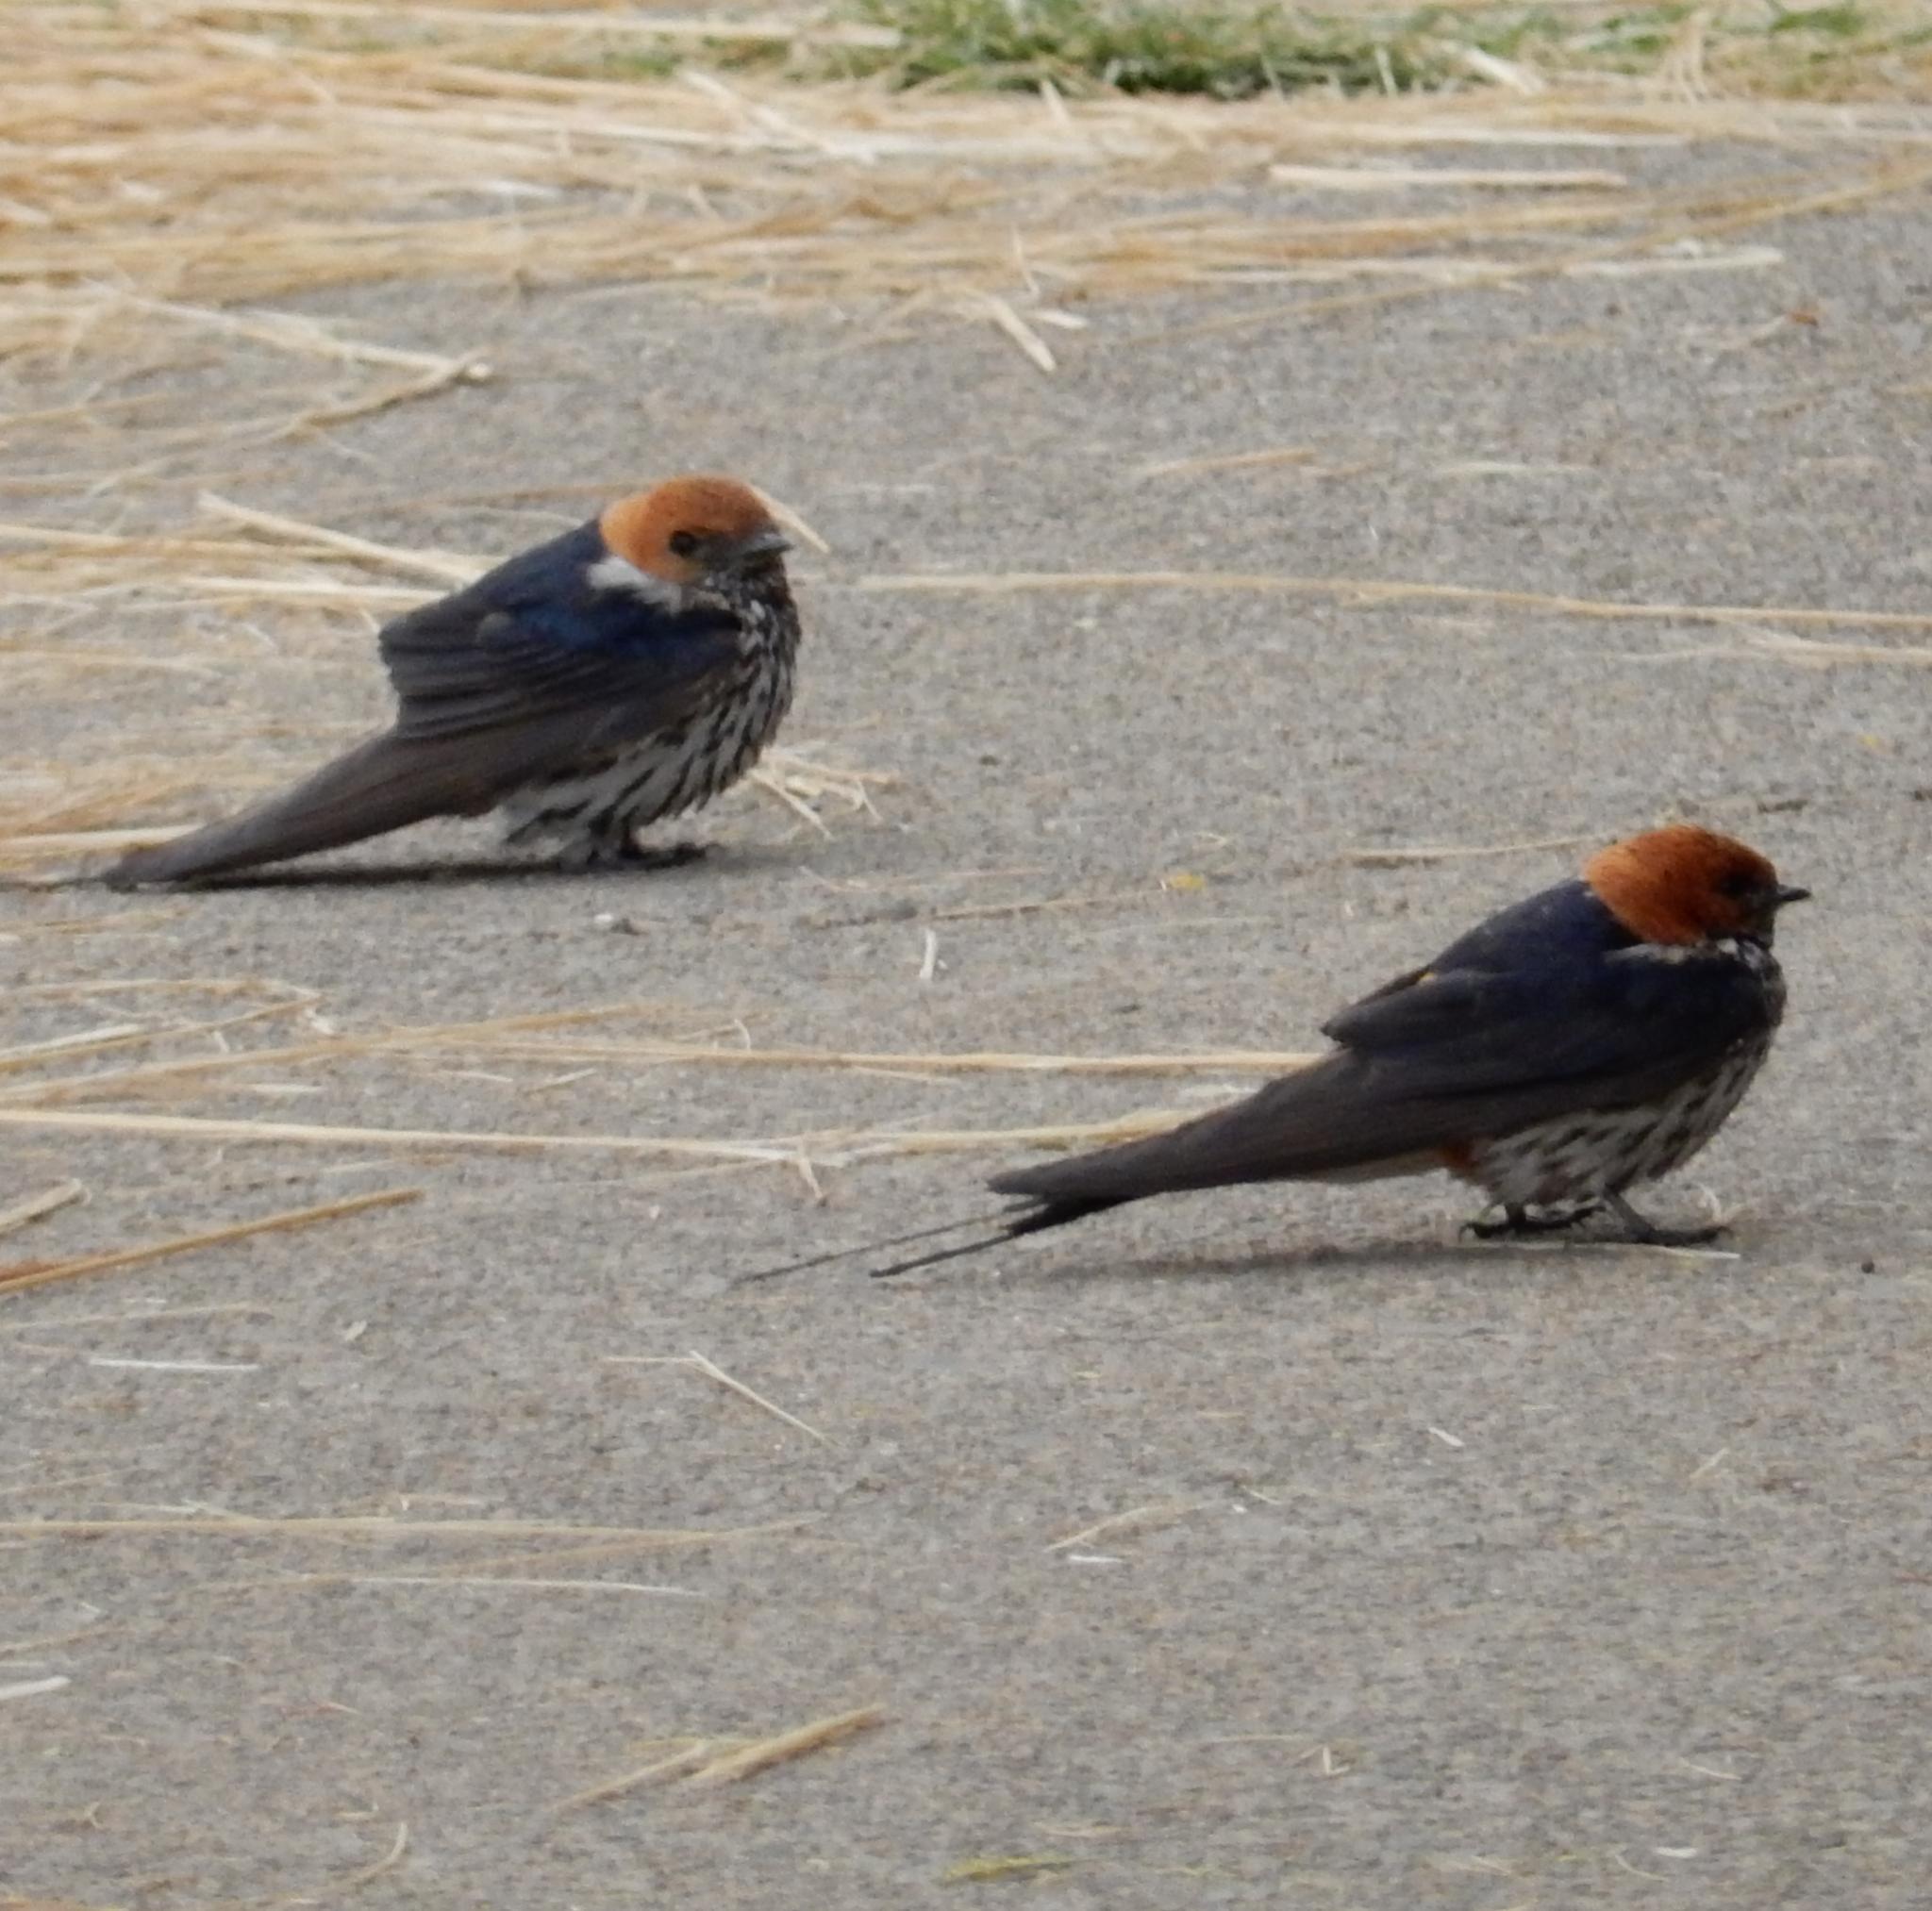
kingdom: Animalia
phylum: Chordata
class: Aves
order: Passeriformes
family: Hirundinidae
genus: Cecropis
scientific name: Cecropis abyssinica
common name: Lesser striped-swallow
